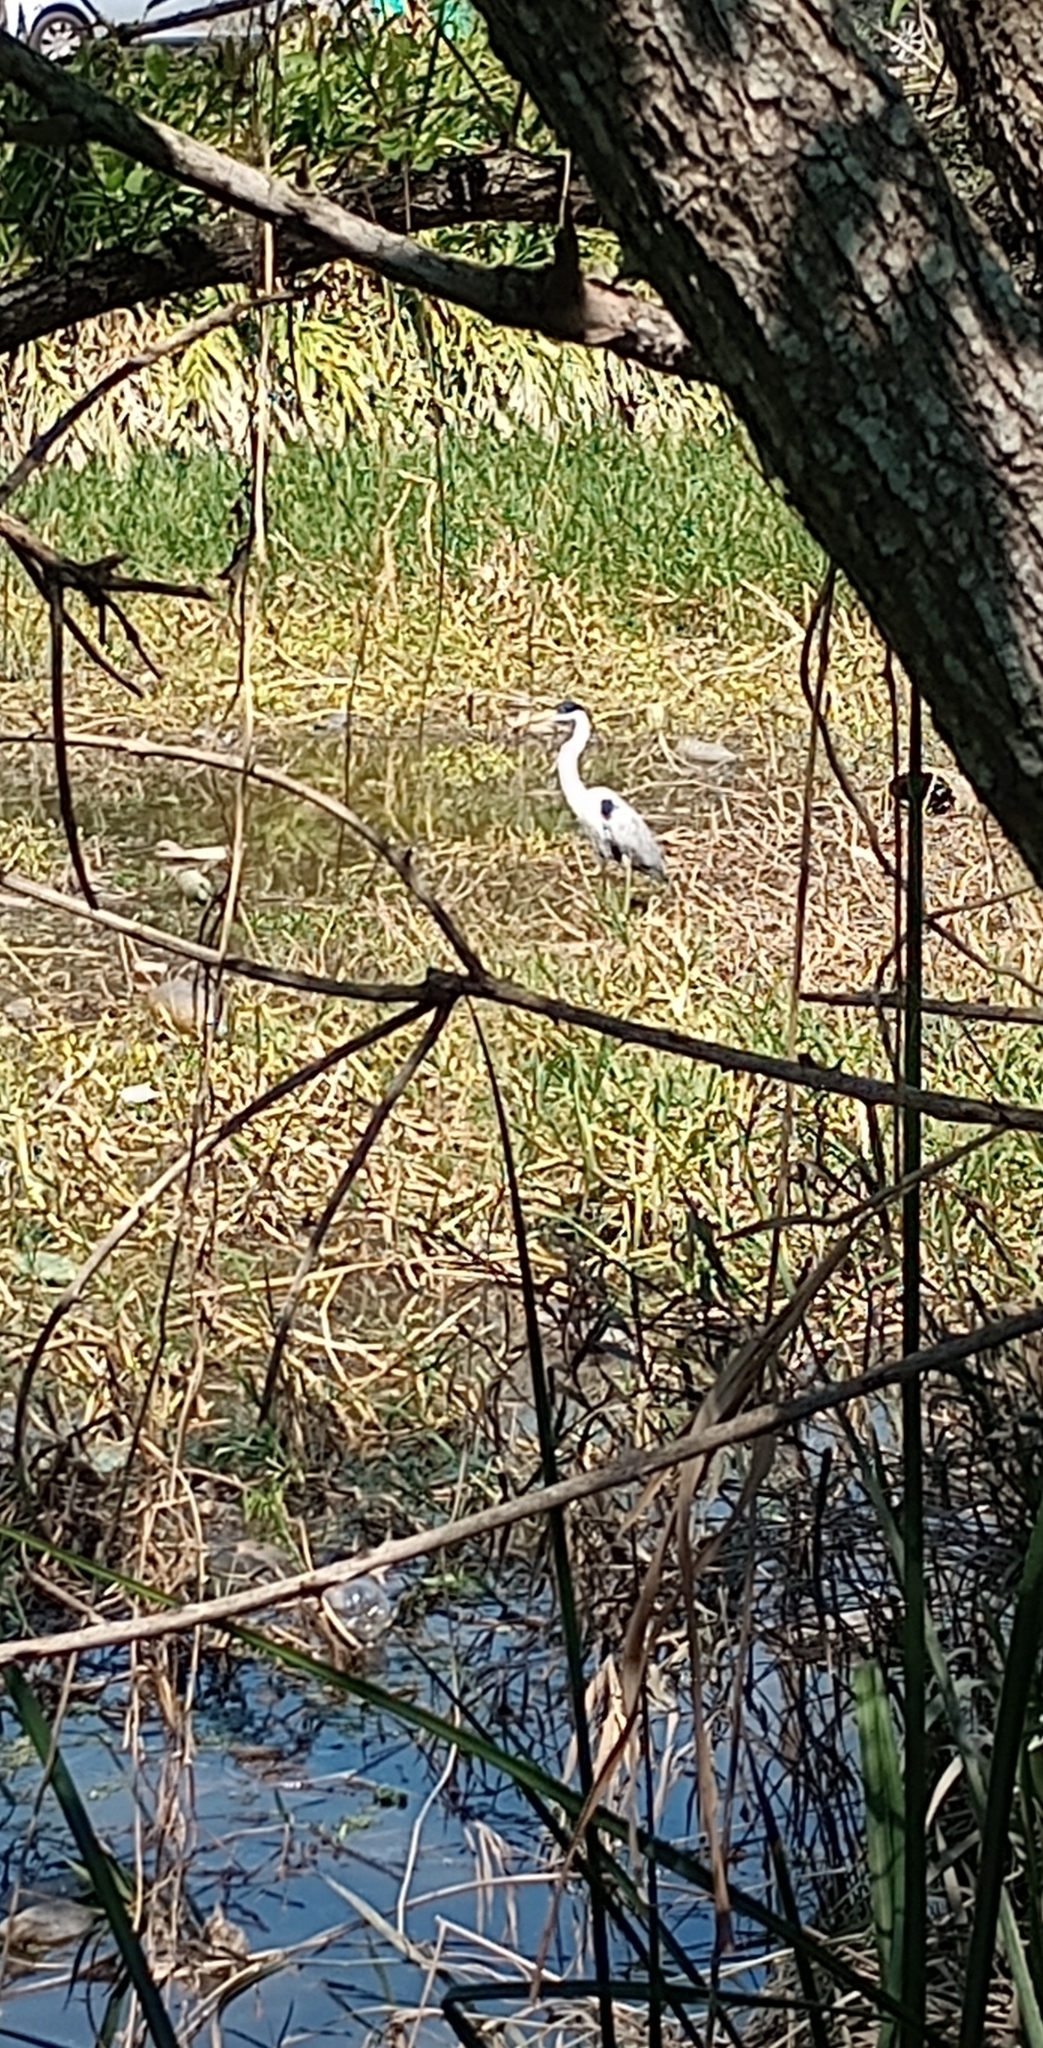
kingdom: Animalia
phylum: Chordata
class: Aves
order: Pelecaniformes
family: Ardeidae
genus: Ardea
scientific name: Ardea cocoi
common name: Cocoi heron
